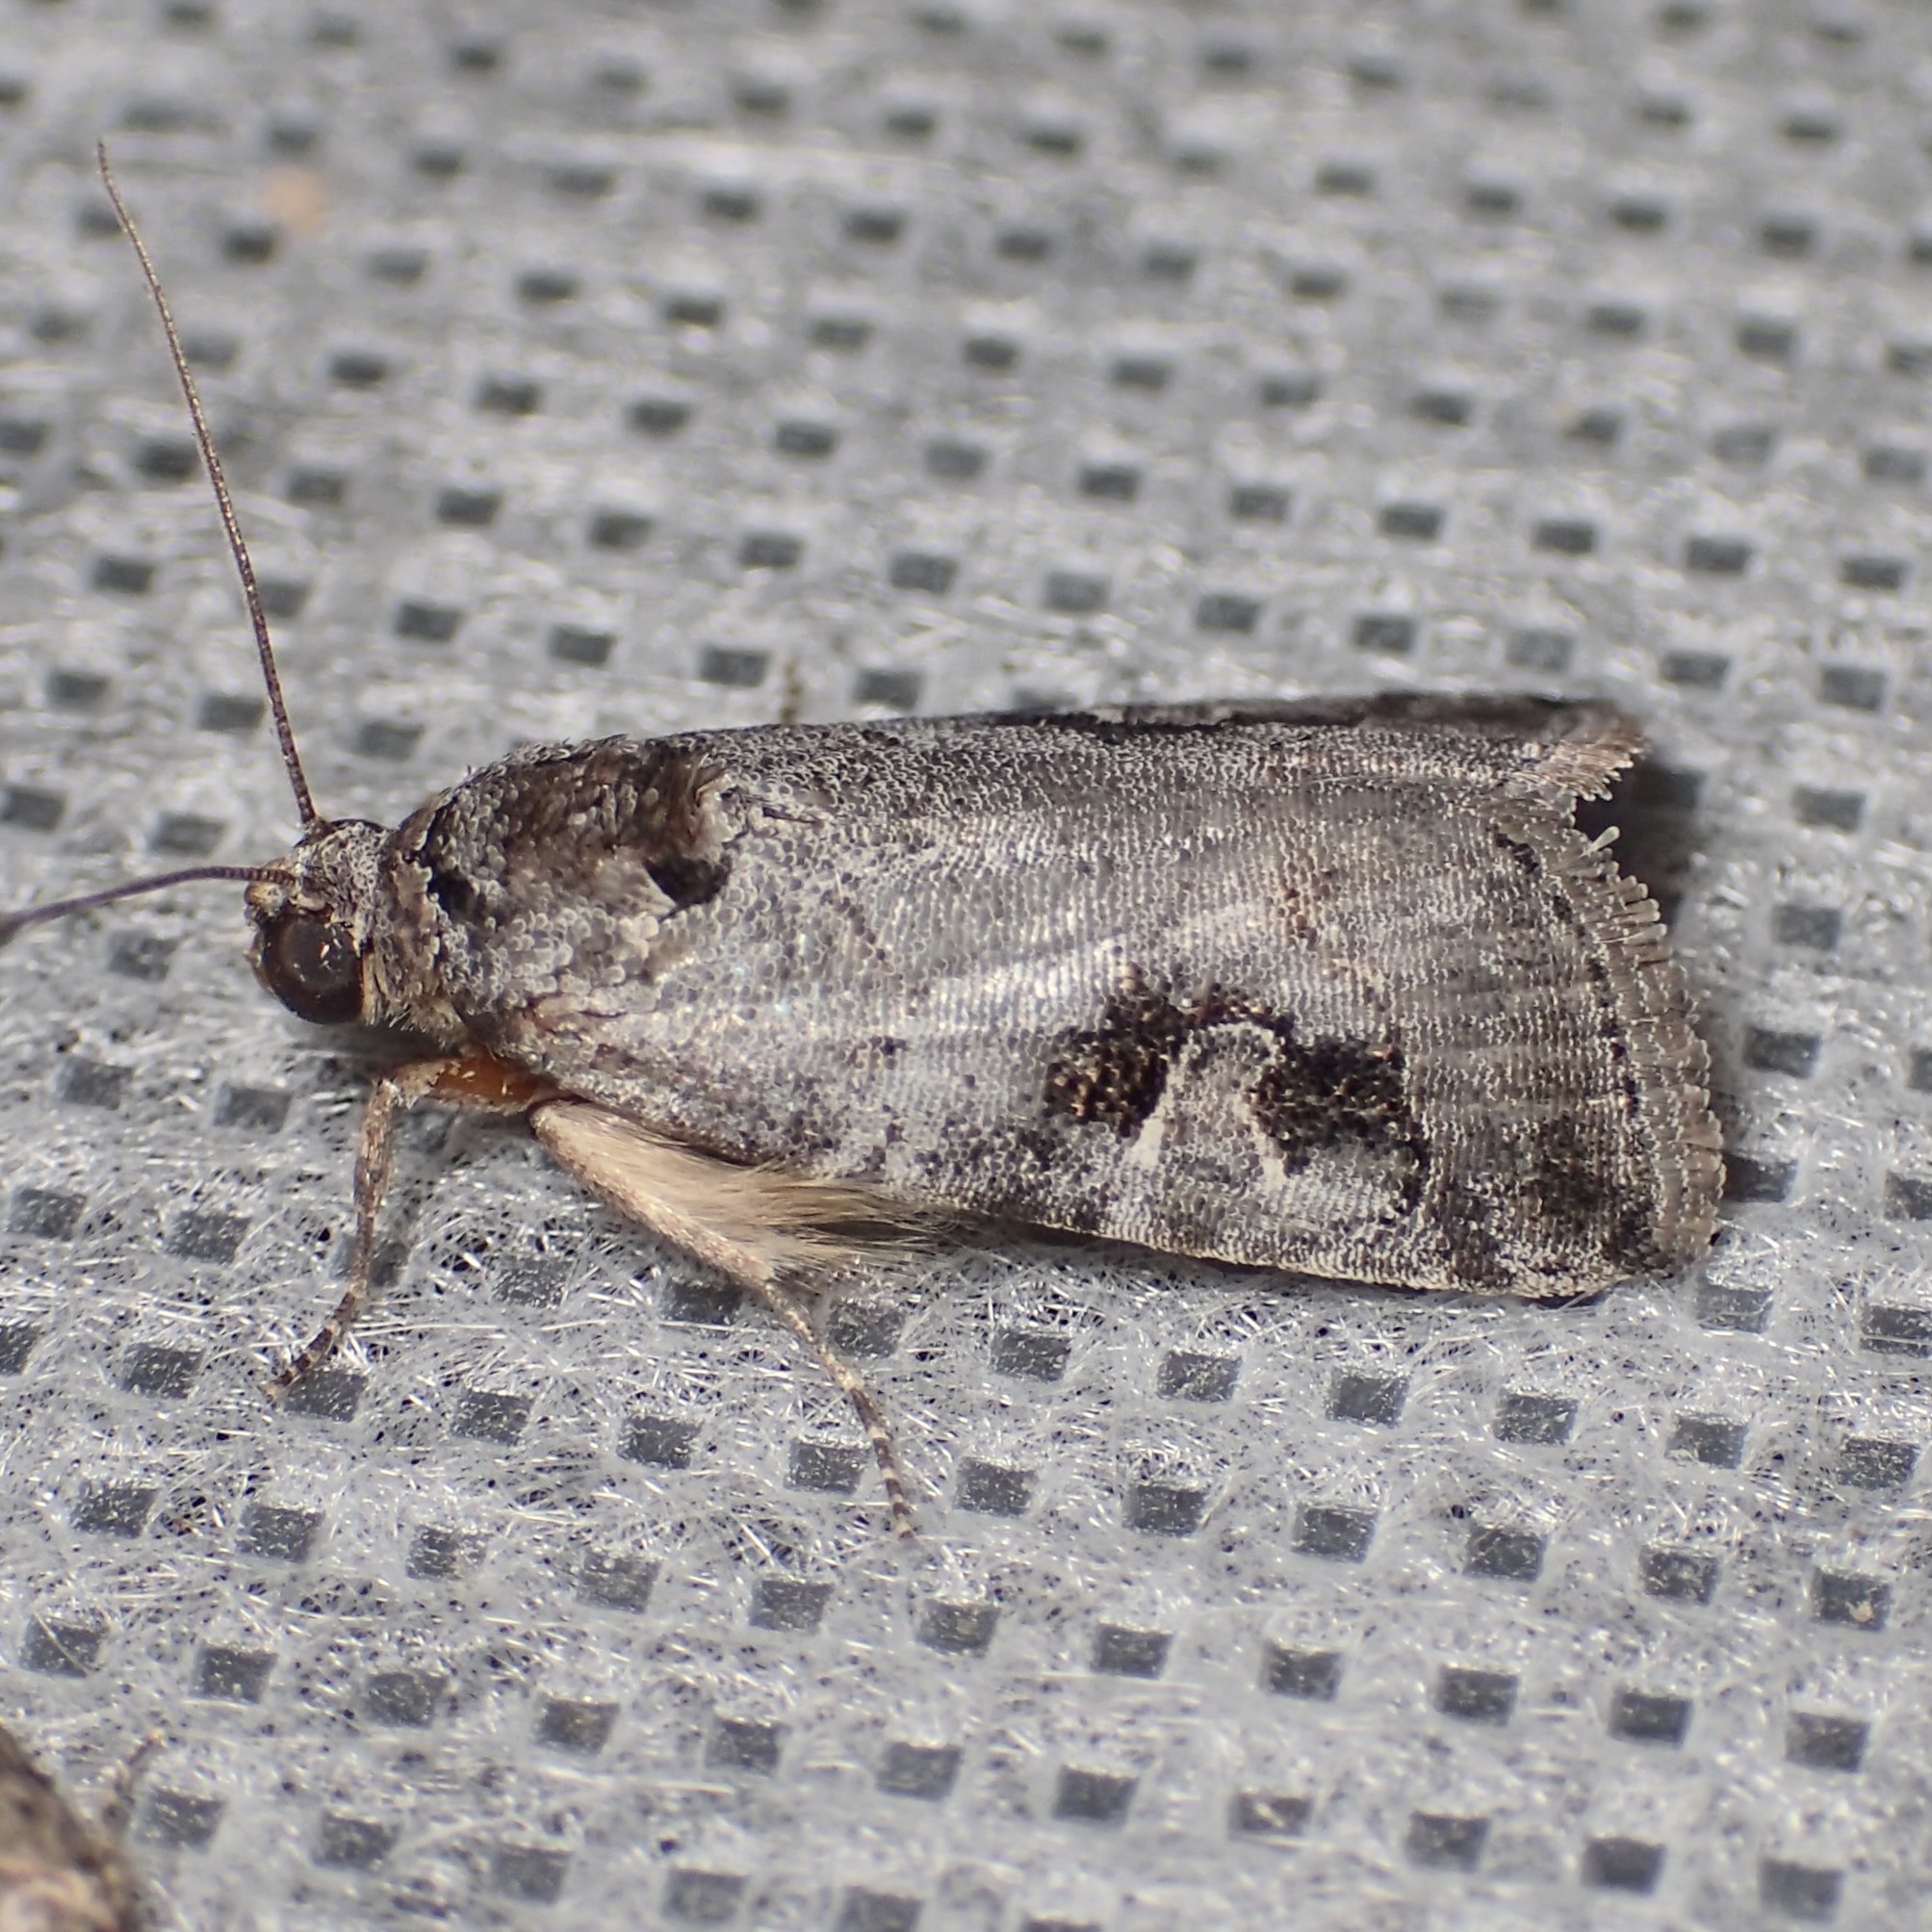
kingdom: Animalia
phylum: Arthropoda
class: Insecta
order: Lepidoptera
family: Noctuidae
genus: Metaponpneumata
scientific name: Metaponpneumata rogenhoferi
